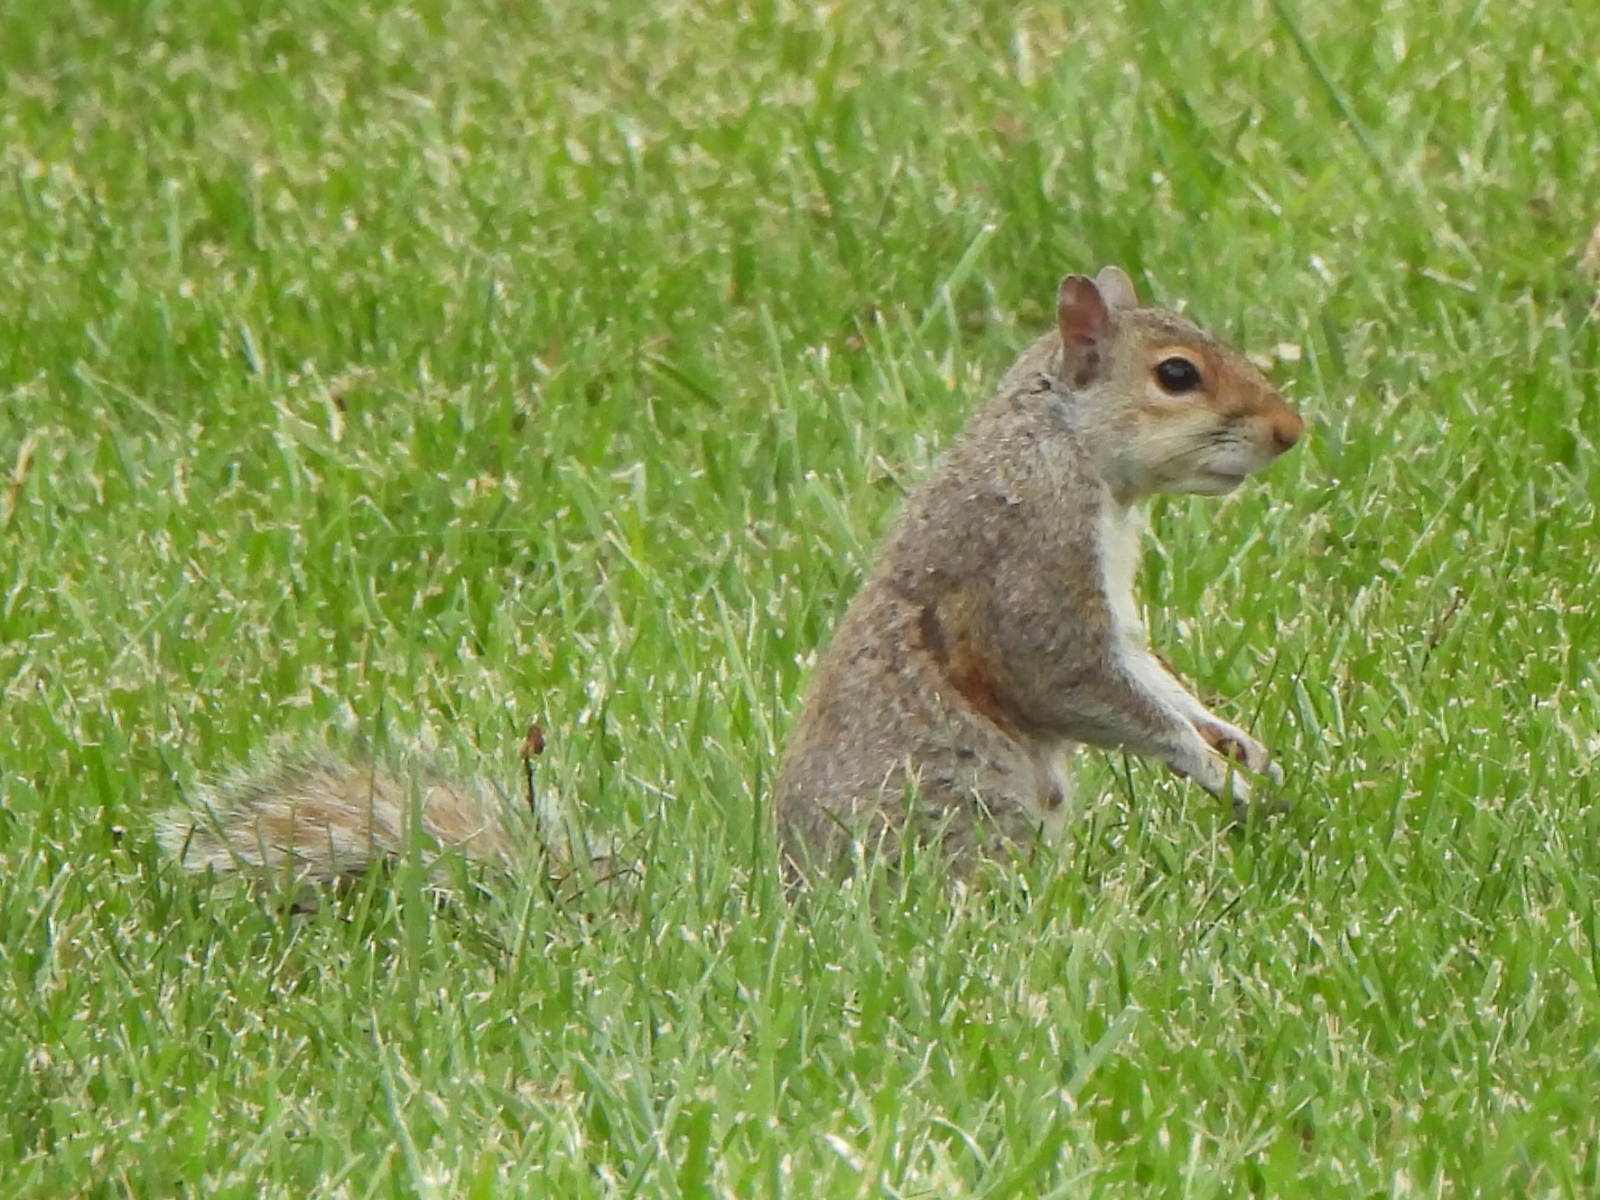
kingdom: Animalia
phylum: Chordata
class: Mammalia
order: Rodentia
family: Sciuridae
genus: Sciurus
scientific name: Sciurus carolinensis
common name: Eastern gray squirrel
